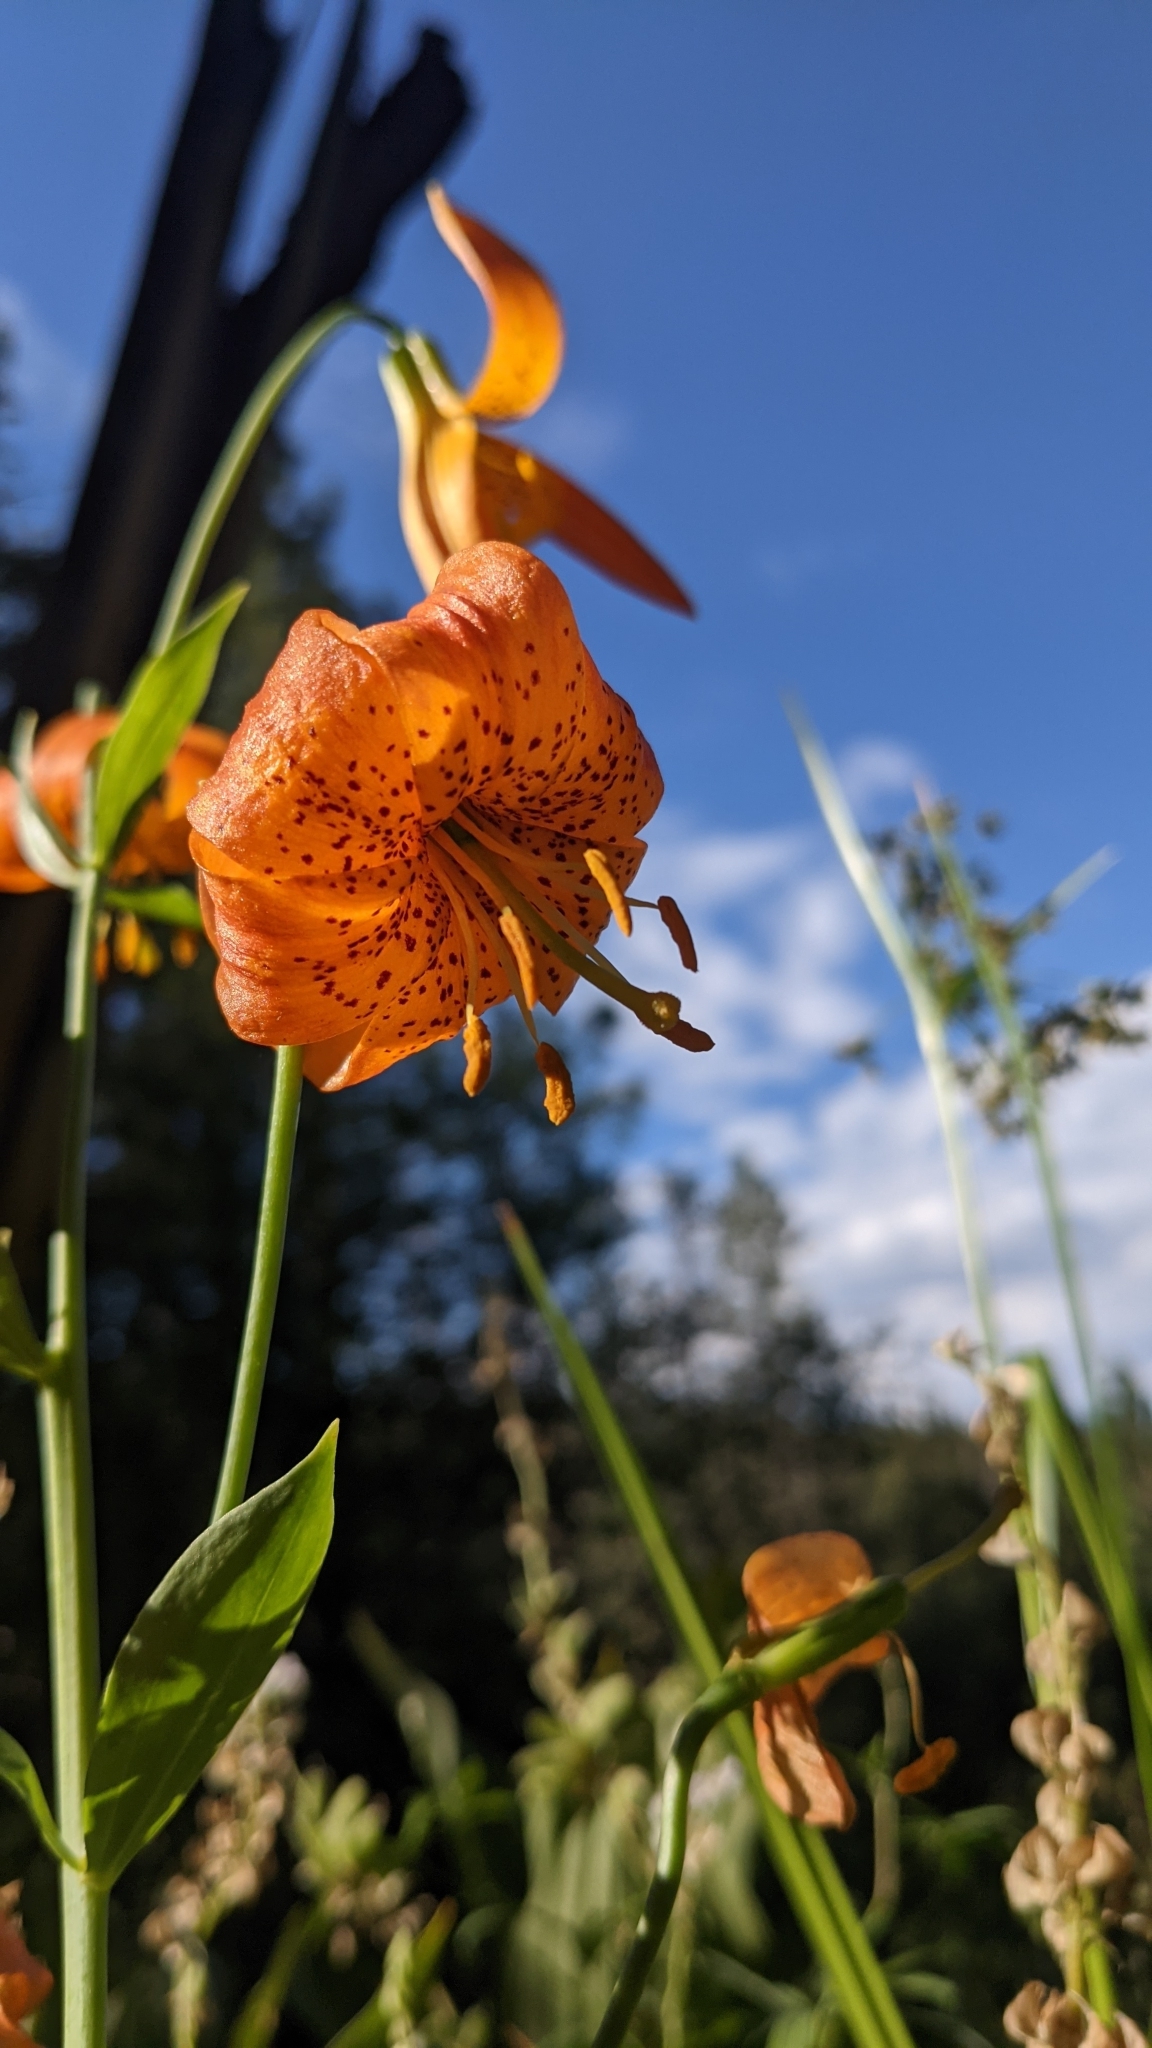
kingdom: Plantae
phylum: Tracheophyta
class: Liliopsida
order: Liliales
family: Liliaceae
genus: Lilium
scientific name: Lilium pardalinum
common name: Panther lily
